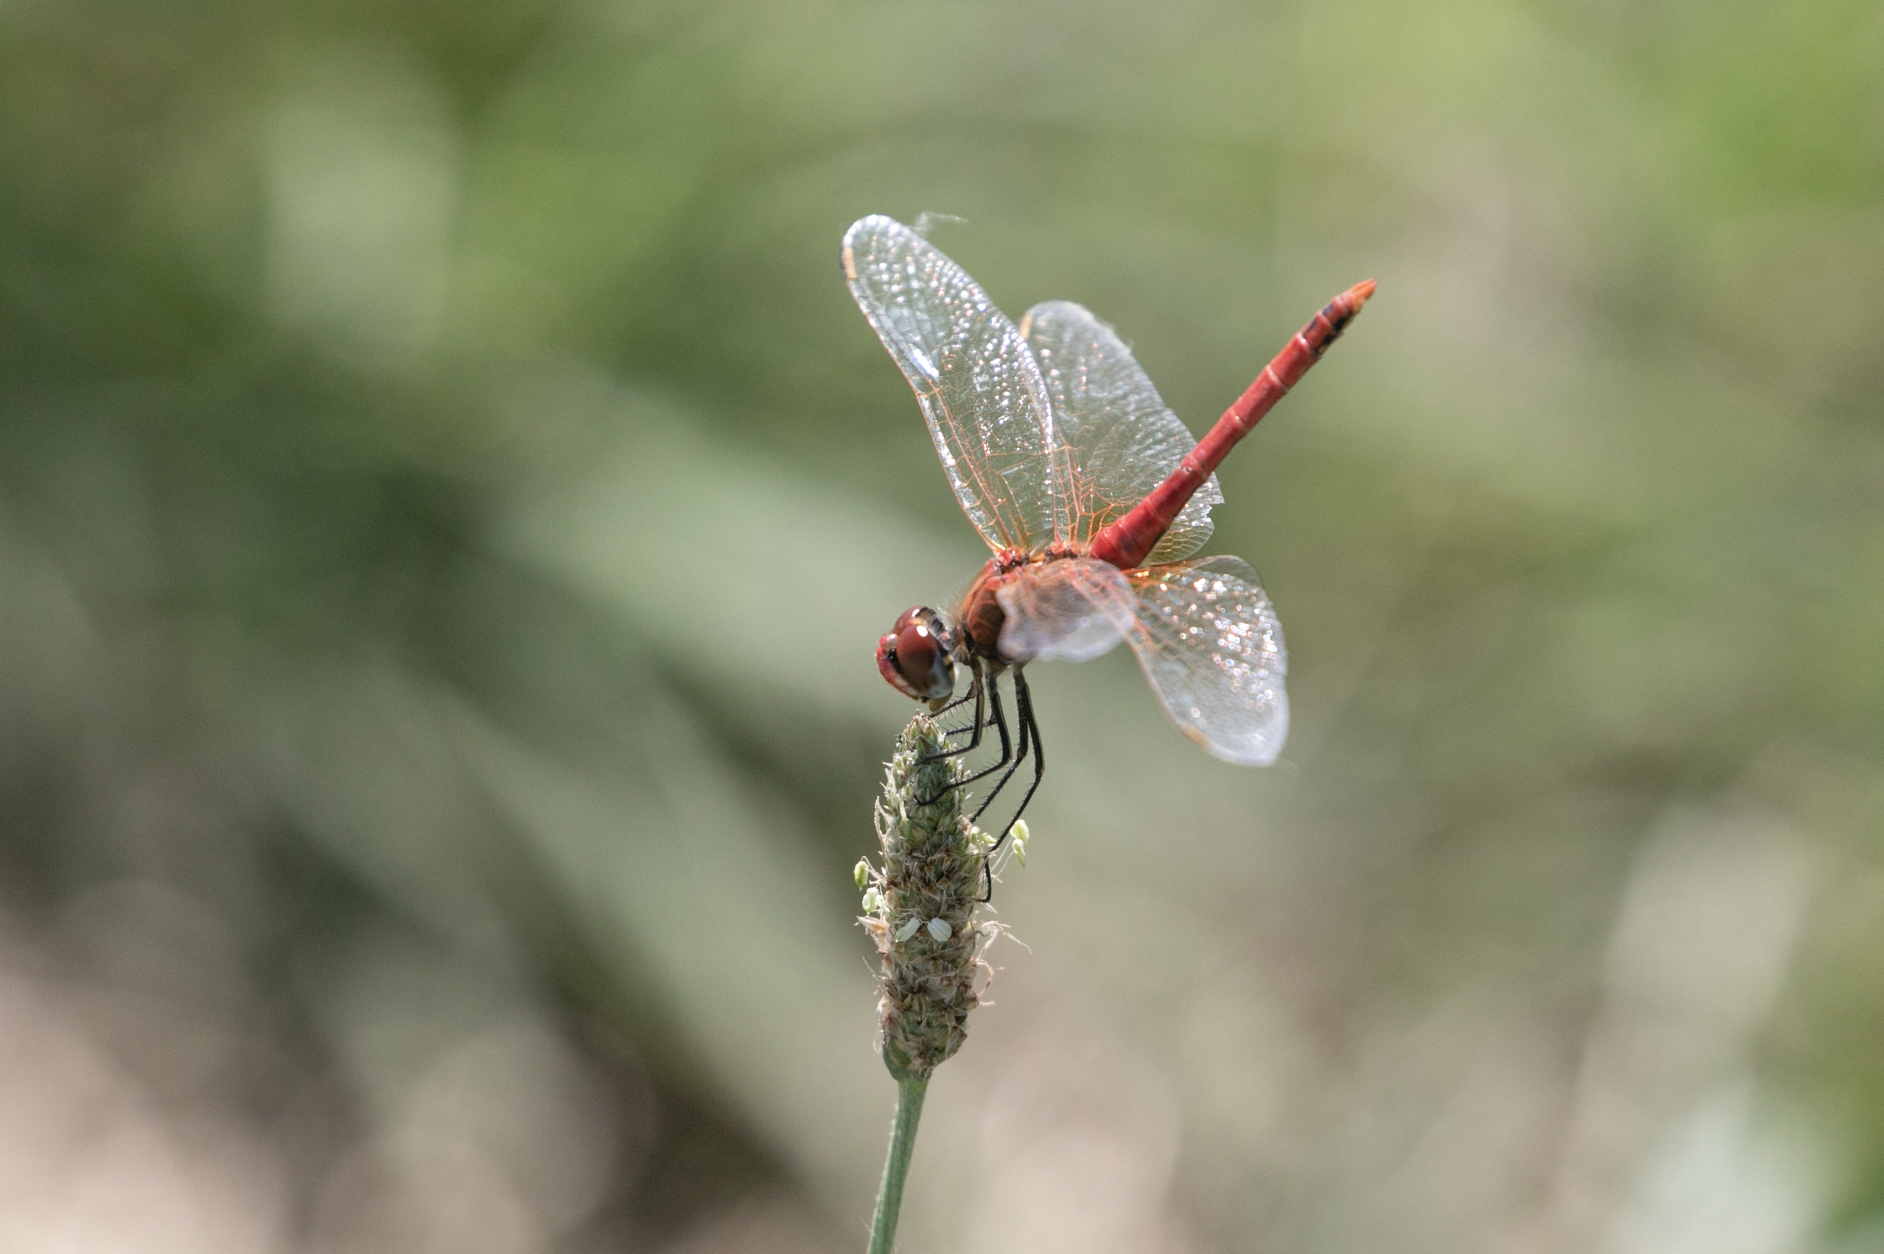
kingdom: Animalia
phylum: Arthropoda
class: Insecta
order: Odonata
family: Libellulidae
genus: Sympetrum
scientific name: Sympetrum fonscolombii
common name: Red-veined darter
